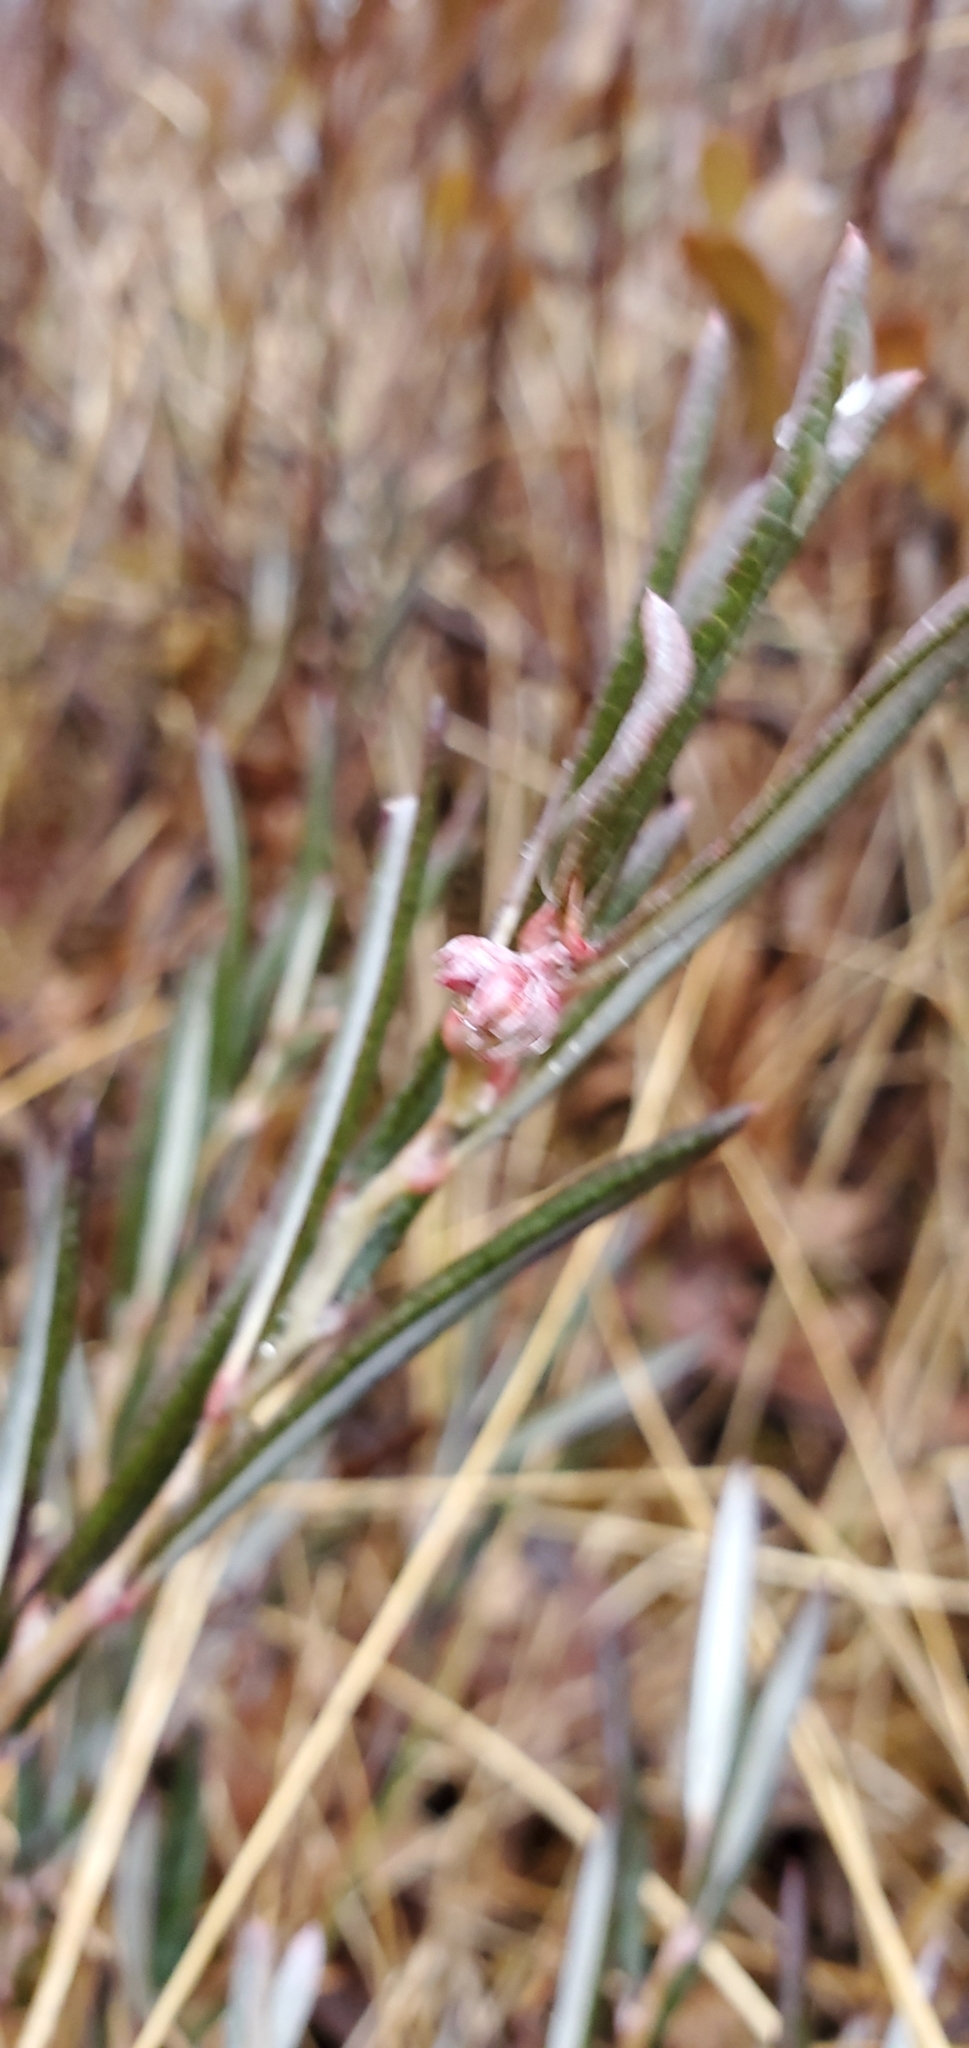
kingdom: Plantae
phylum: Tracheophyta
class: Magnoliopsida
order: Ericales
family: Ericaceae
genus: Andromeda
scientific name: Andromeda polifolia
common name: Bog-rosemary
